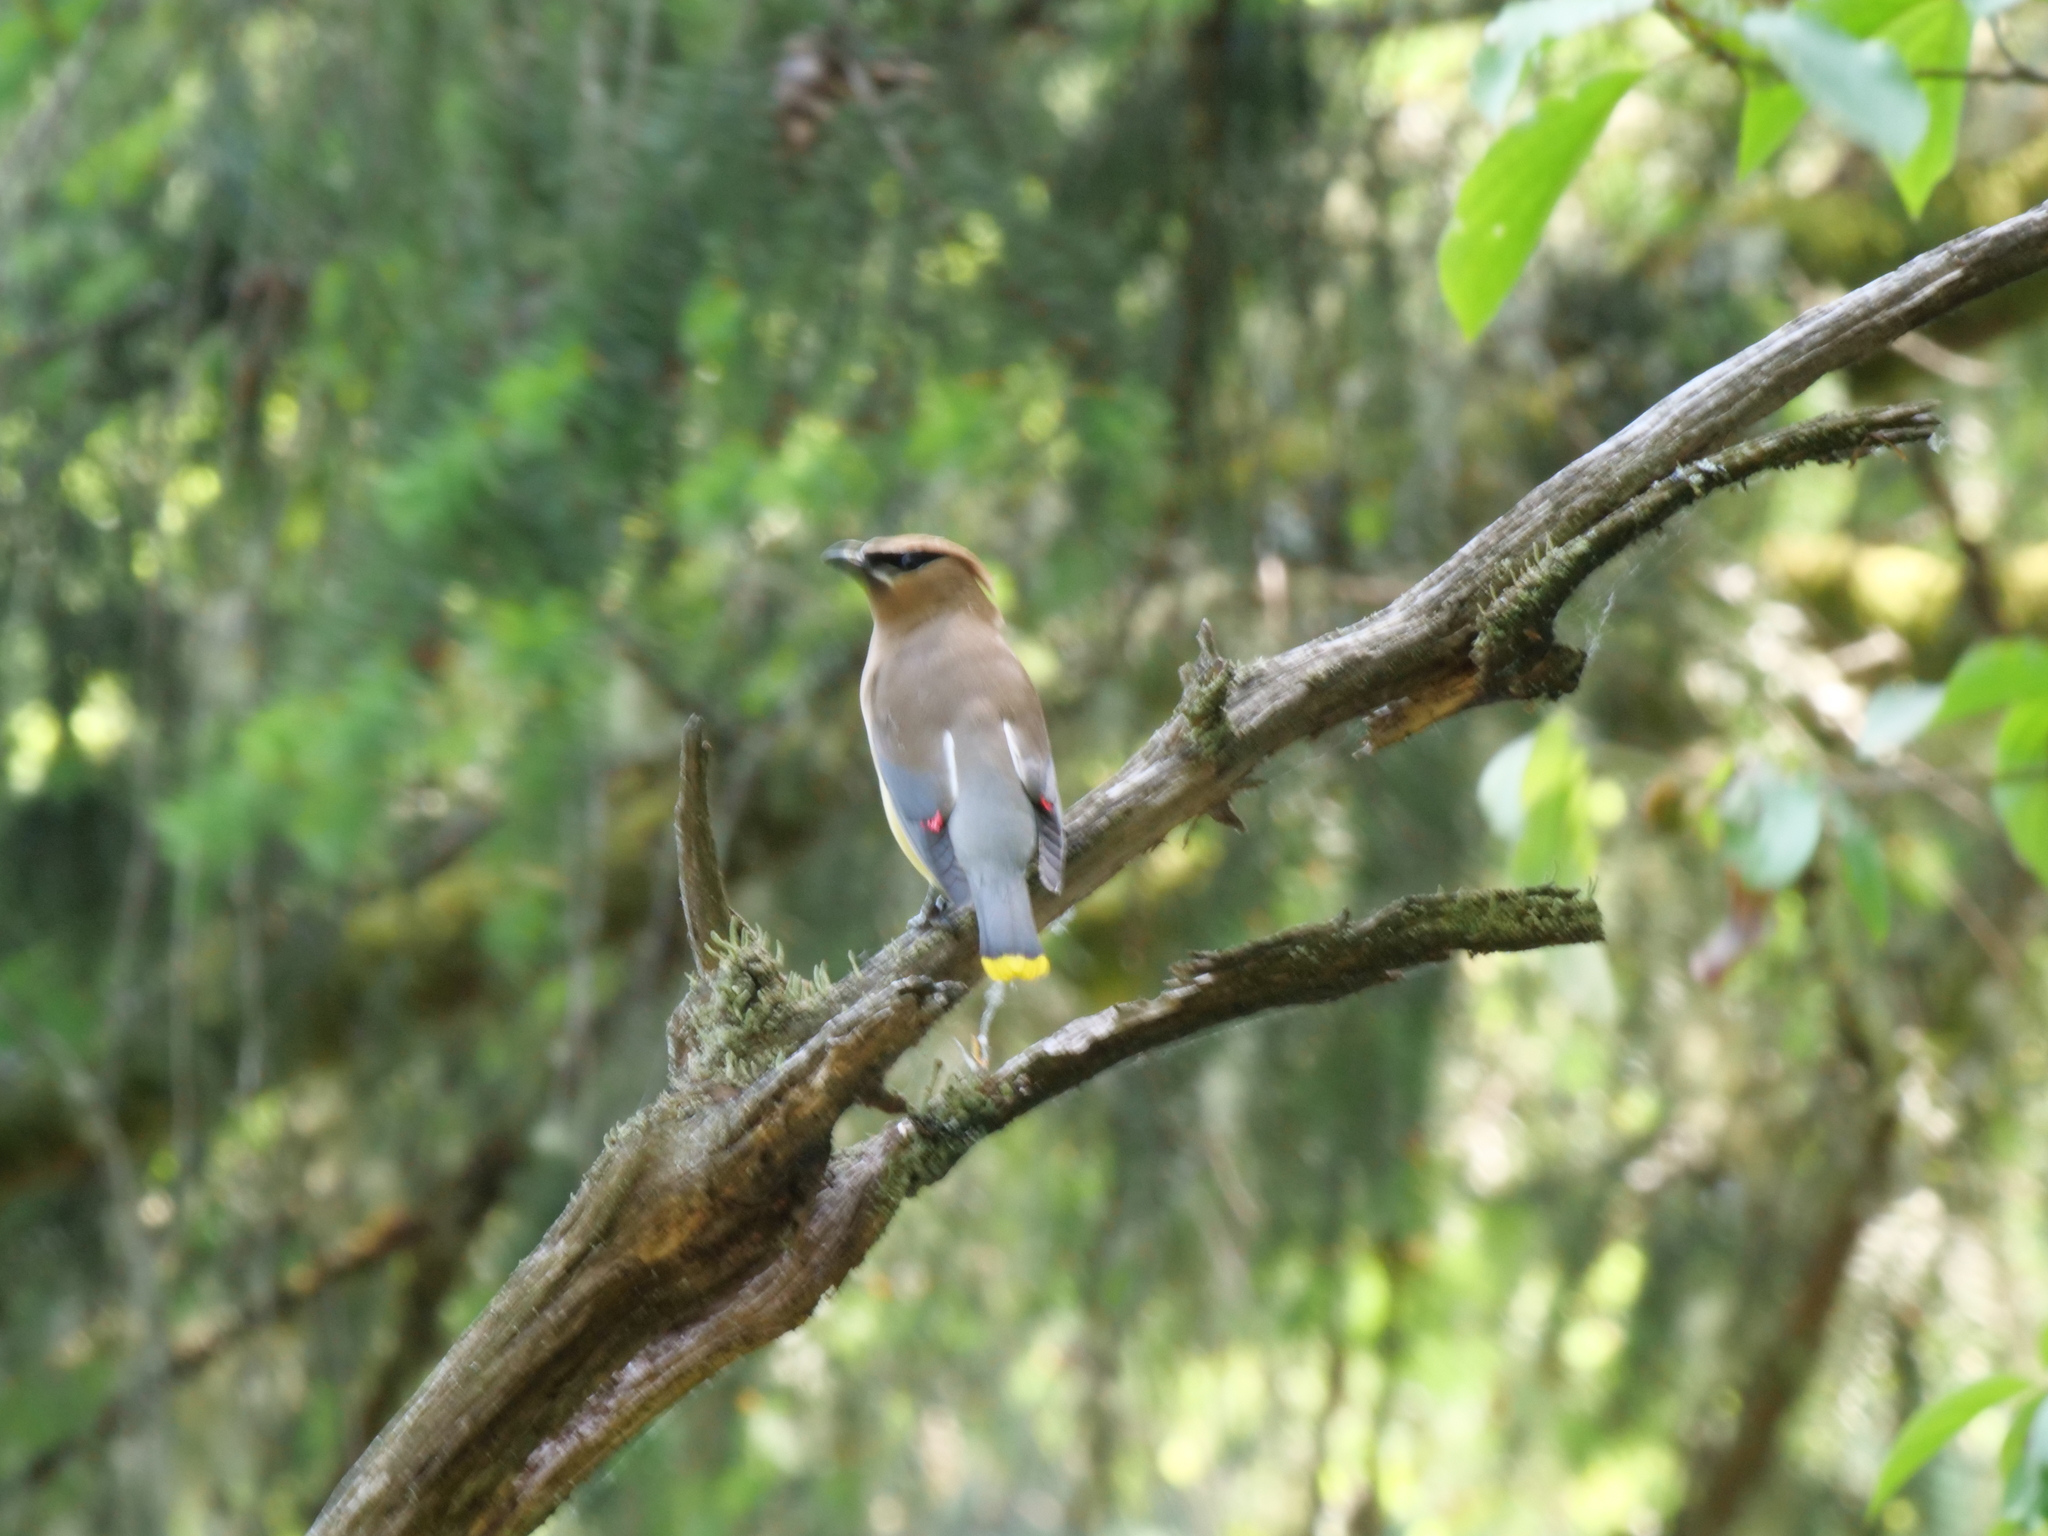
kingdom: Animalia
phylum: Chordata
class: Aves
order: Passeriformes
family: Bombycillidae
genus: Bombycilla
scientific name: Bombycilla cedrorum
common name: Cedar waxwing
